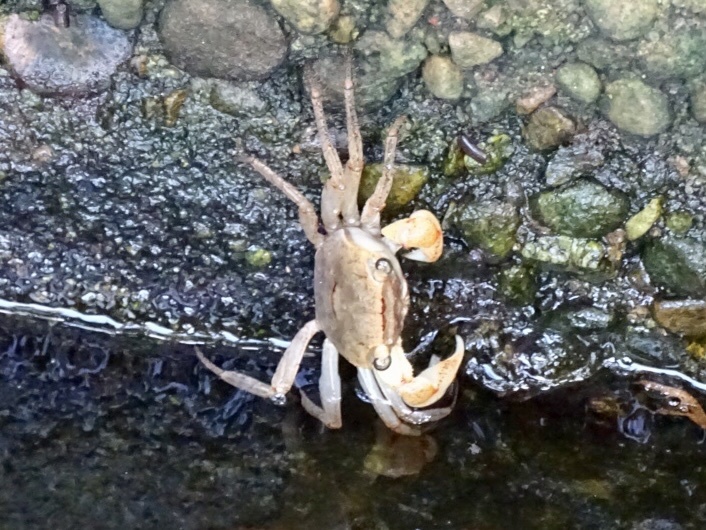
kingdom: Animalia
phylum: Arthropoda
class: Malacostraca
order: Decapoda
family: Sesarmidae
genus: Chiromantes
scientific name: Chiromantes haematocheir
